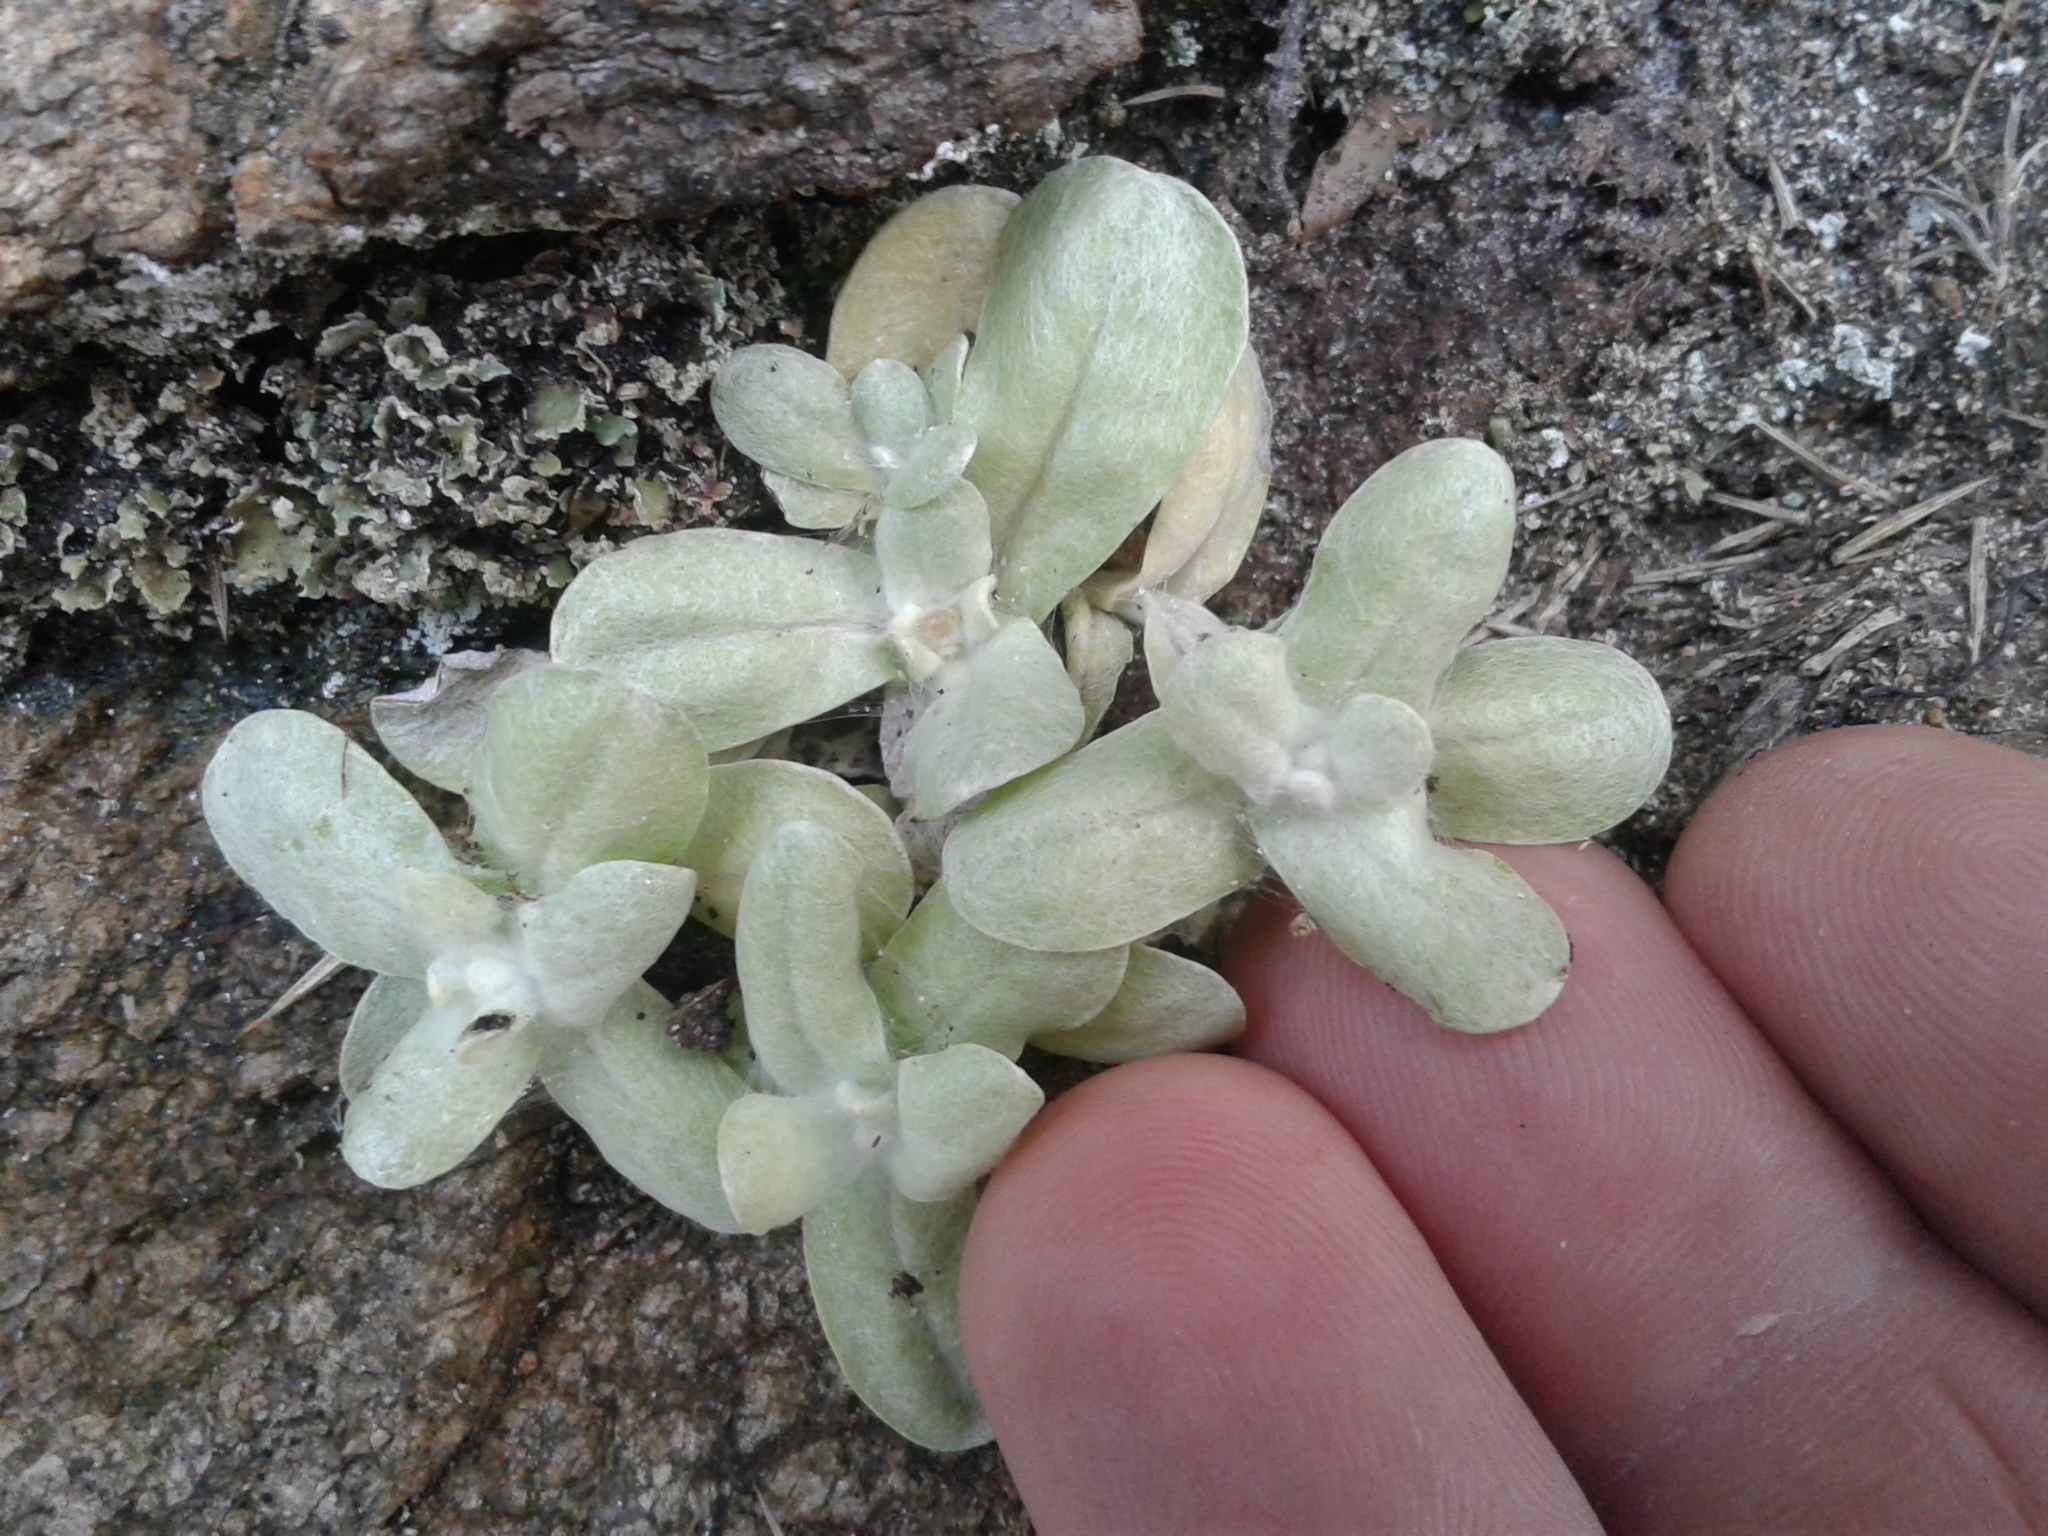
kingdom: Plantae
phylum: Tracheophyta
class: Magnoliopsida
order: Asterales
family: Asteraceae
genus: Helichrysum
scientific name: Helichrysum luteoalbum
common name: Daisy
